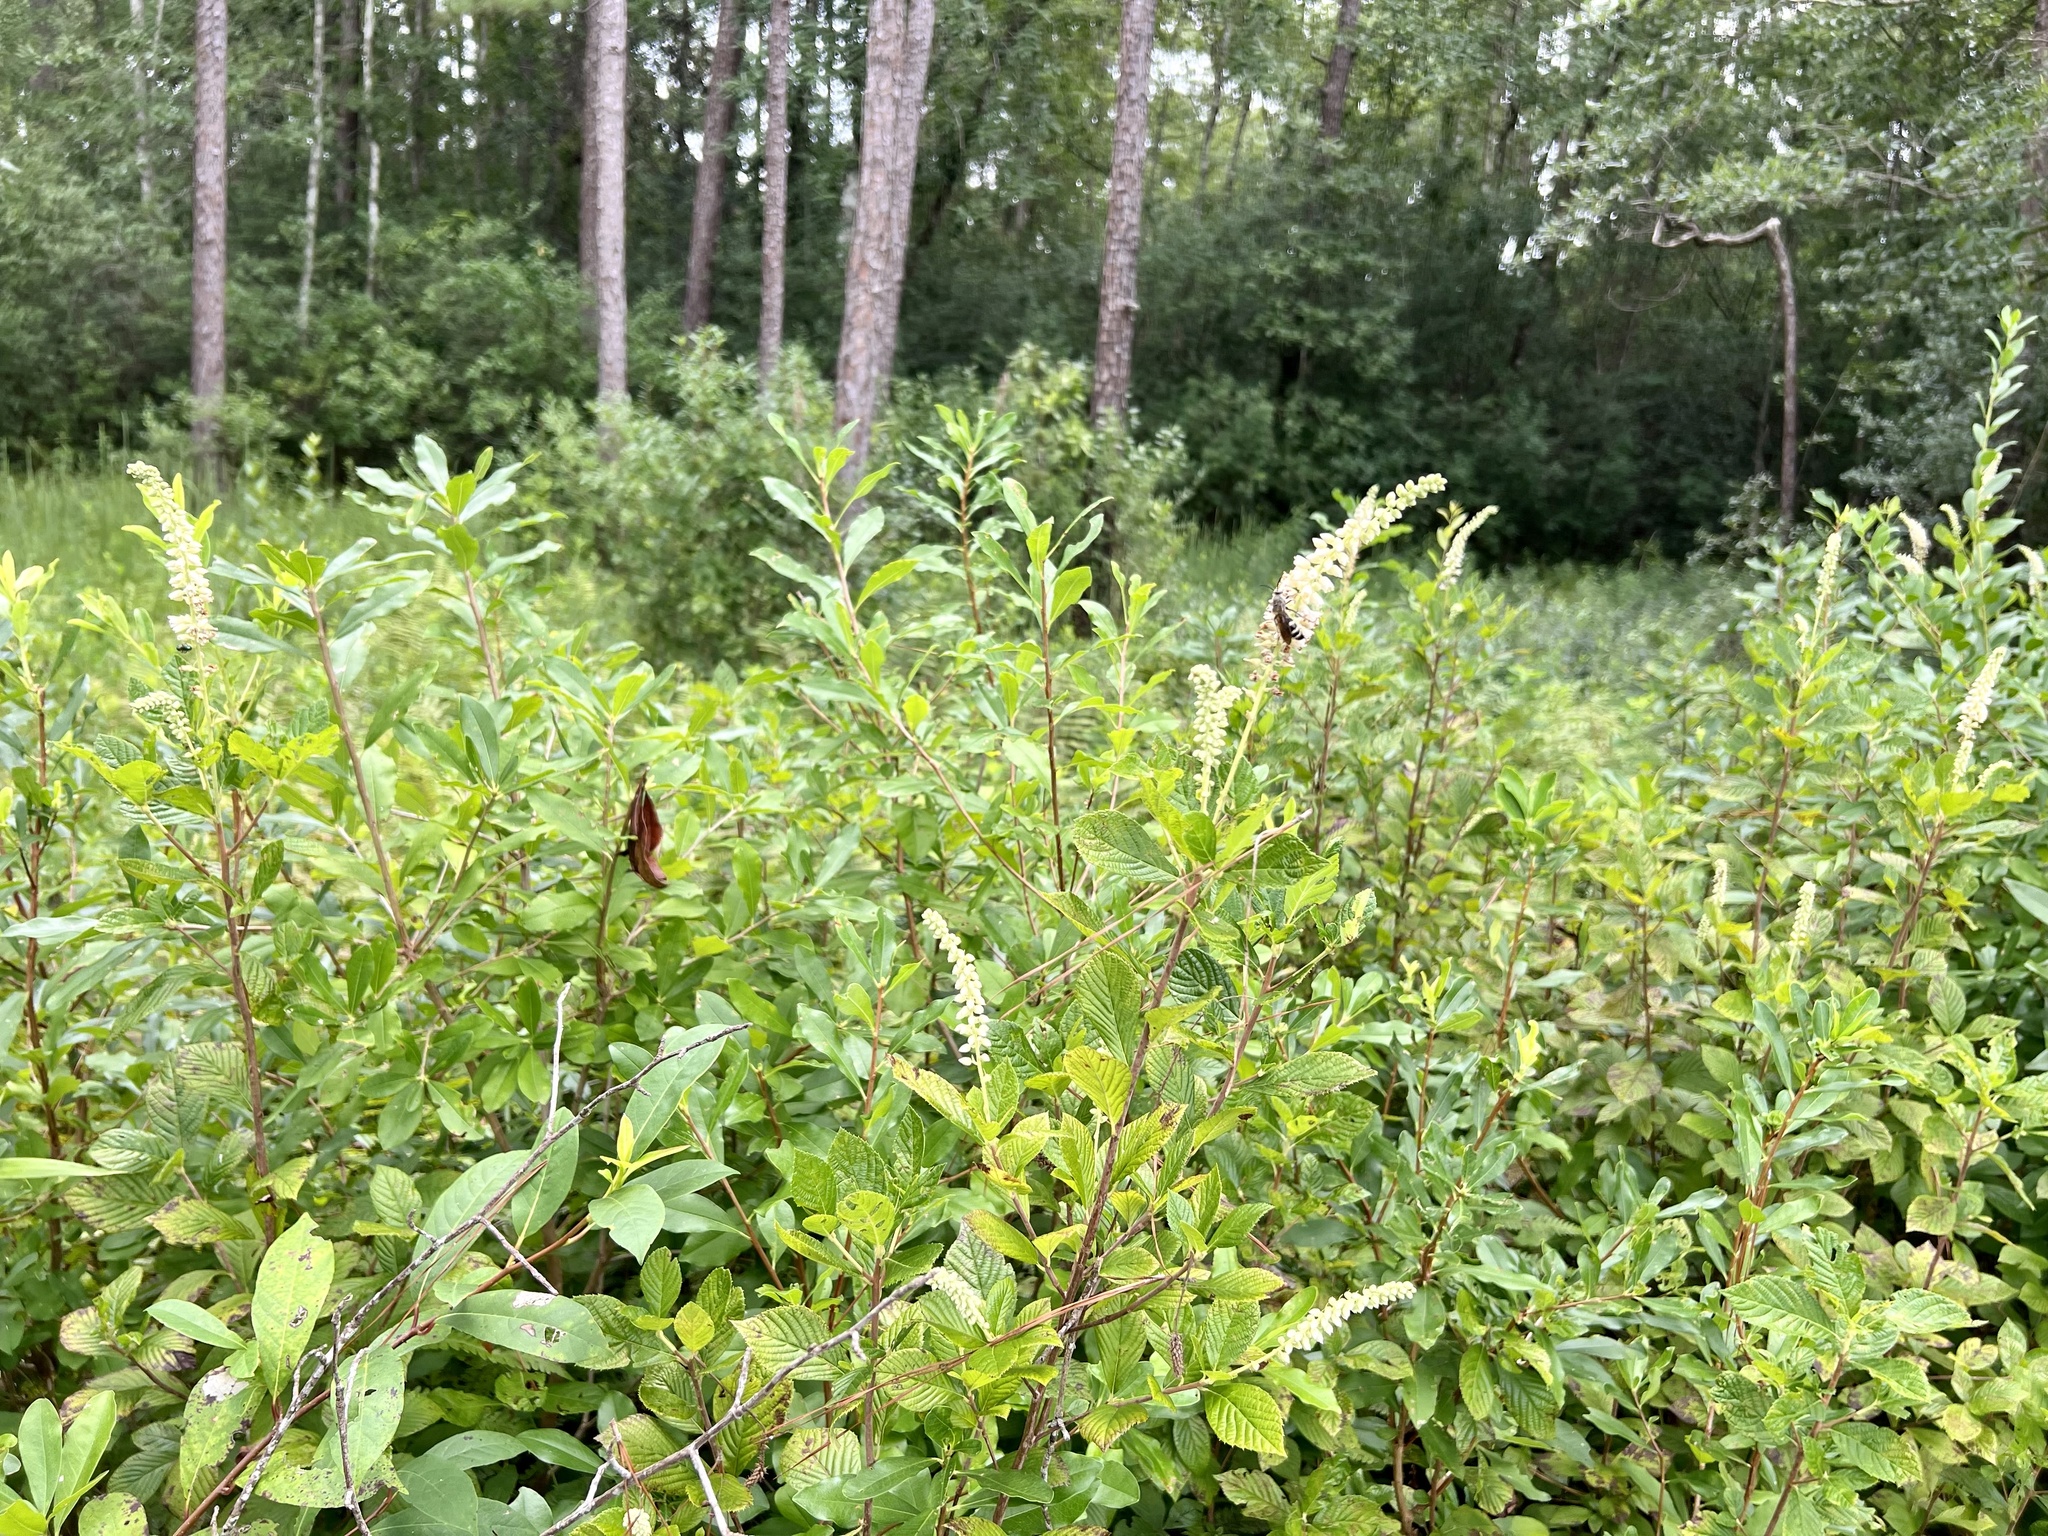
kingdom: Plantae
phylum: Tracheophyta
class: Magnoliopsida
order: Ericales
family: Clethraceae
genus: Clethra
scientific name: Clethra alnifolia
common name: Sweet pepperbush
